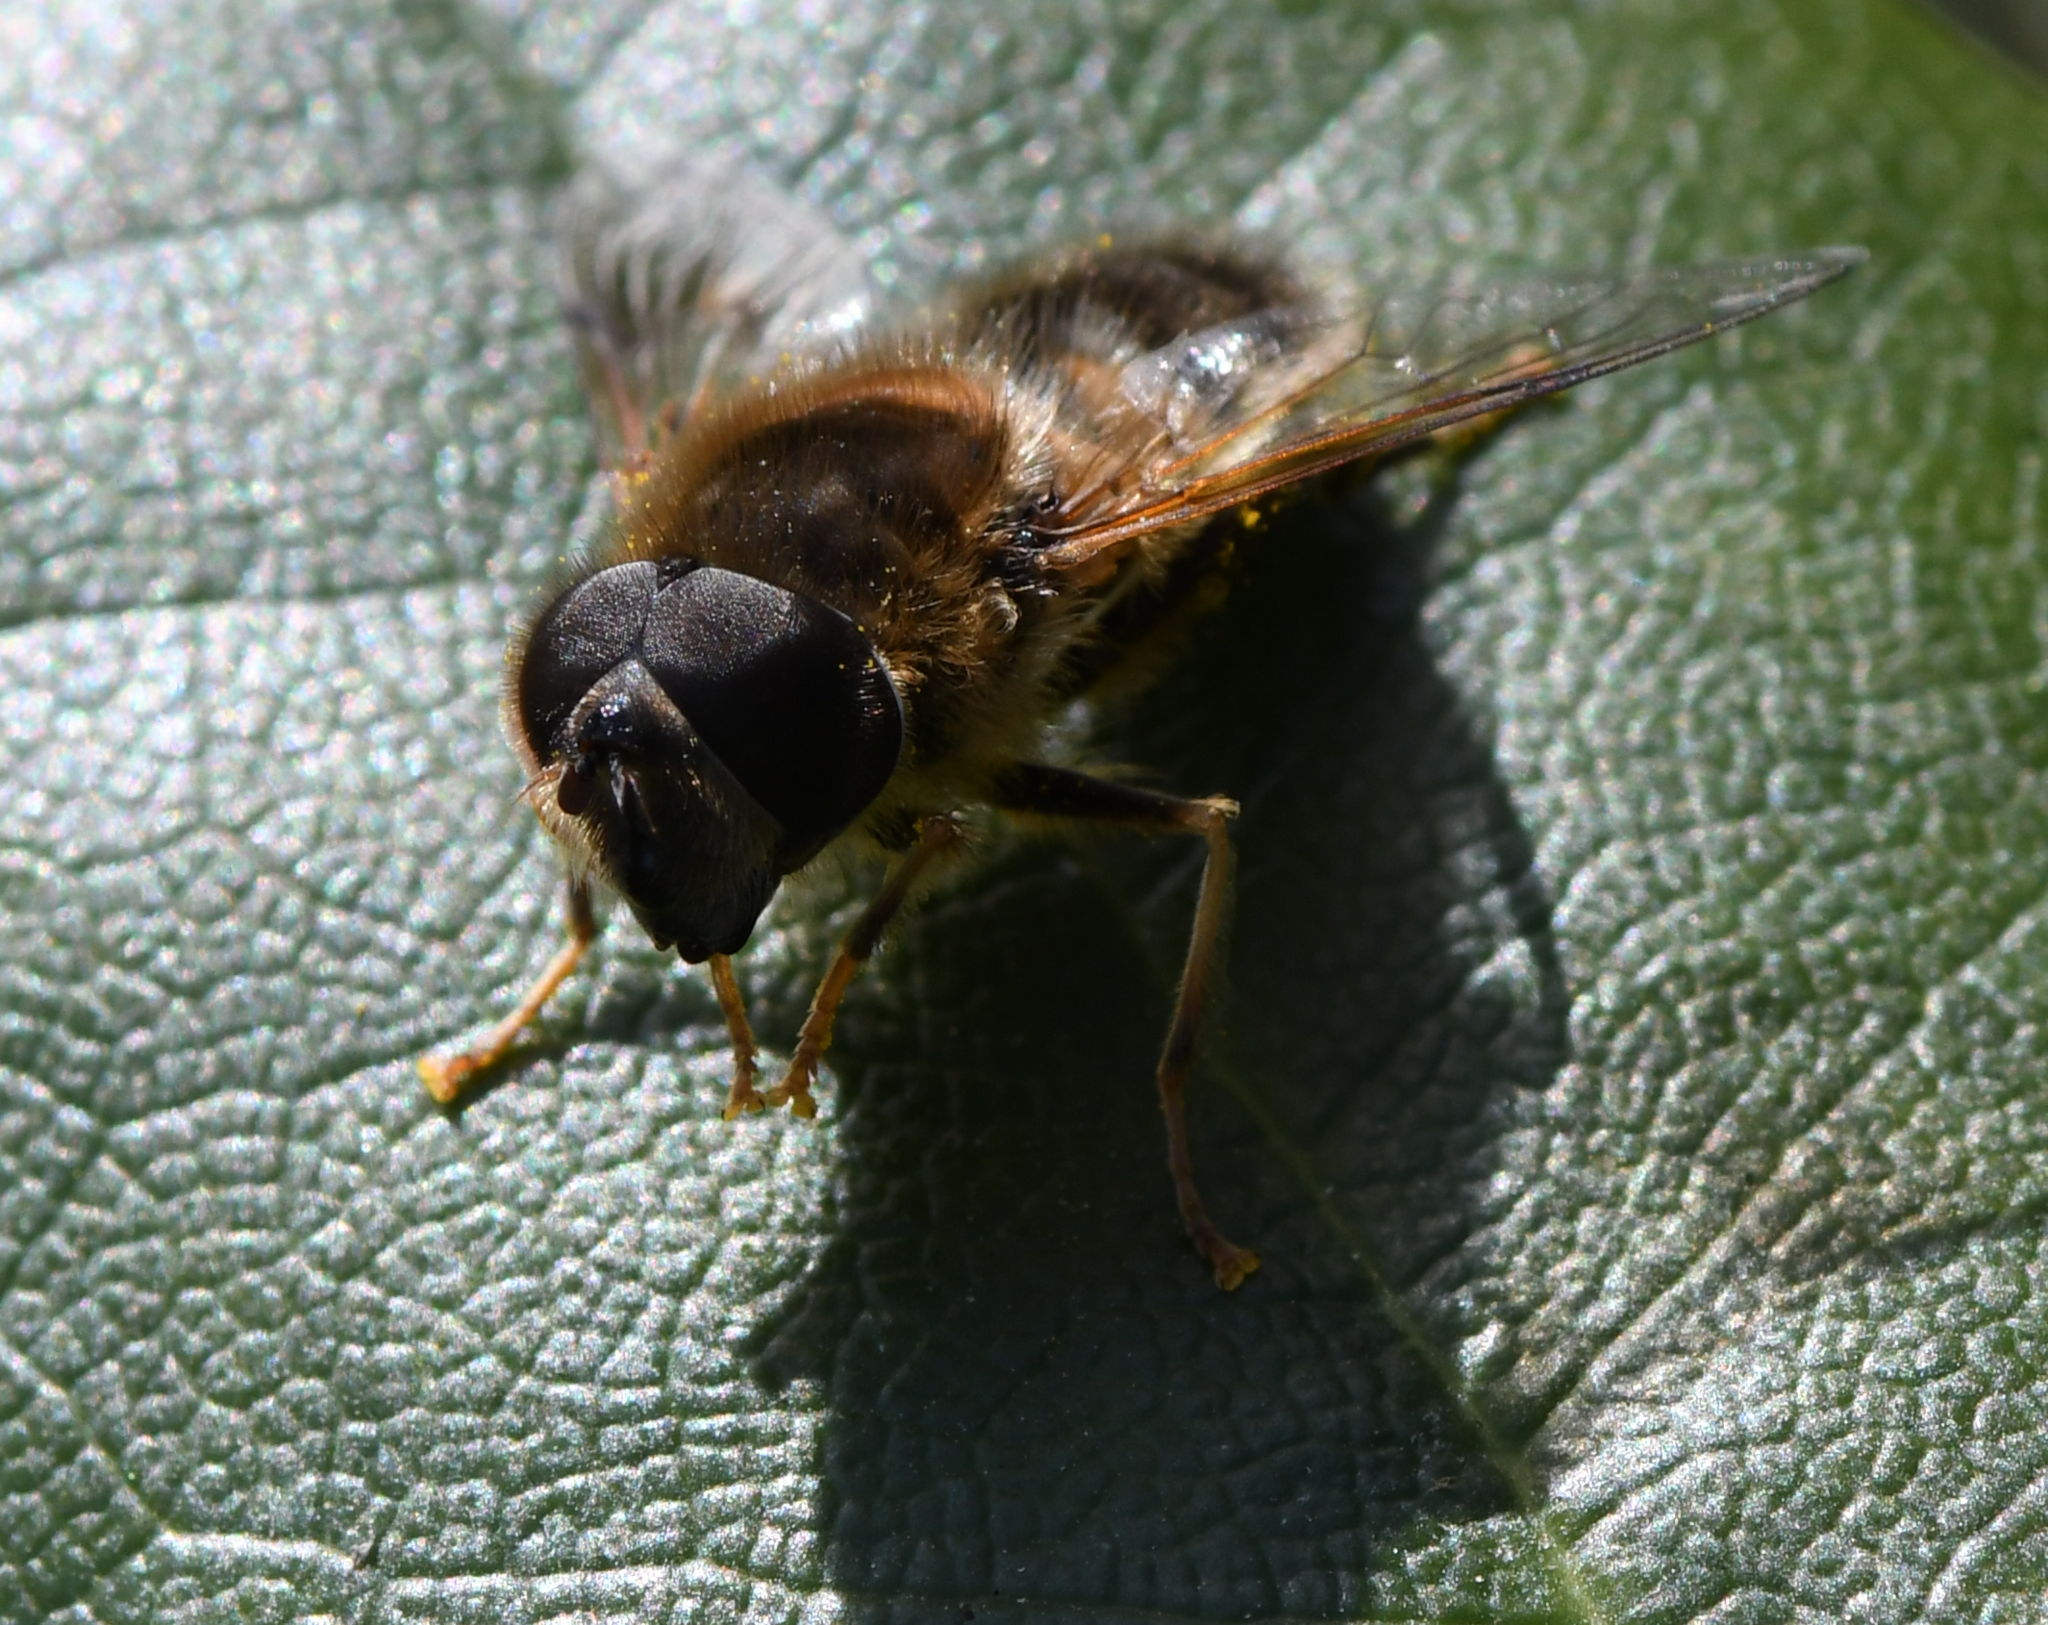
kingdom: Animalia
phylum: Arthropoda
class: Insecta
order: Diptera
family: Syrphidae
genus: Eristalis
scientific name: Eristalis pertinax
